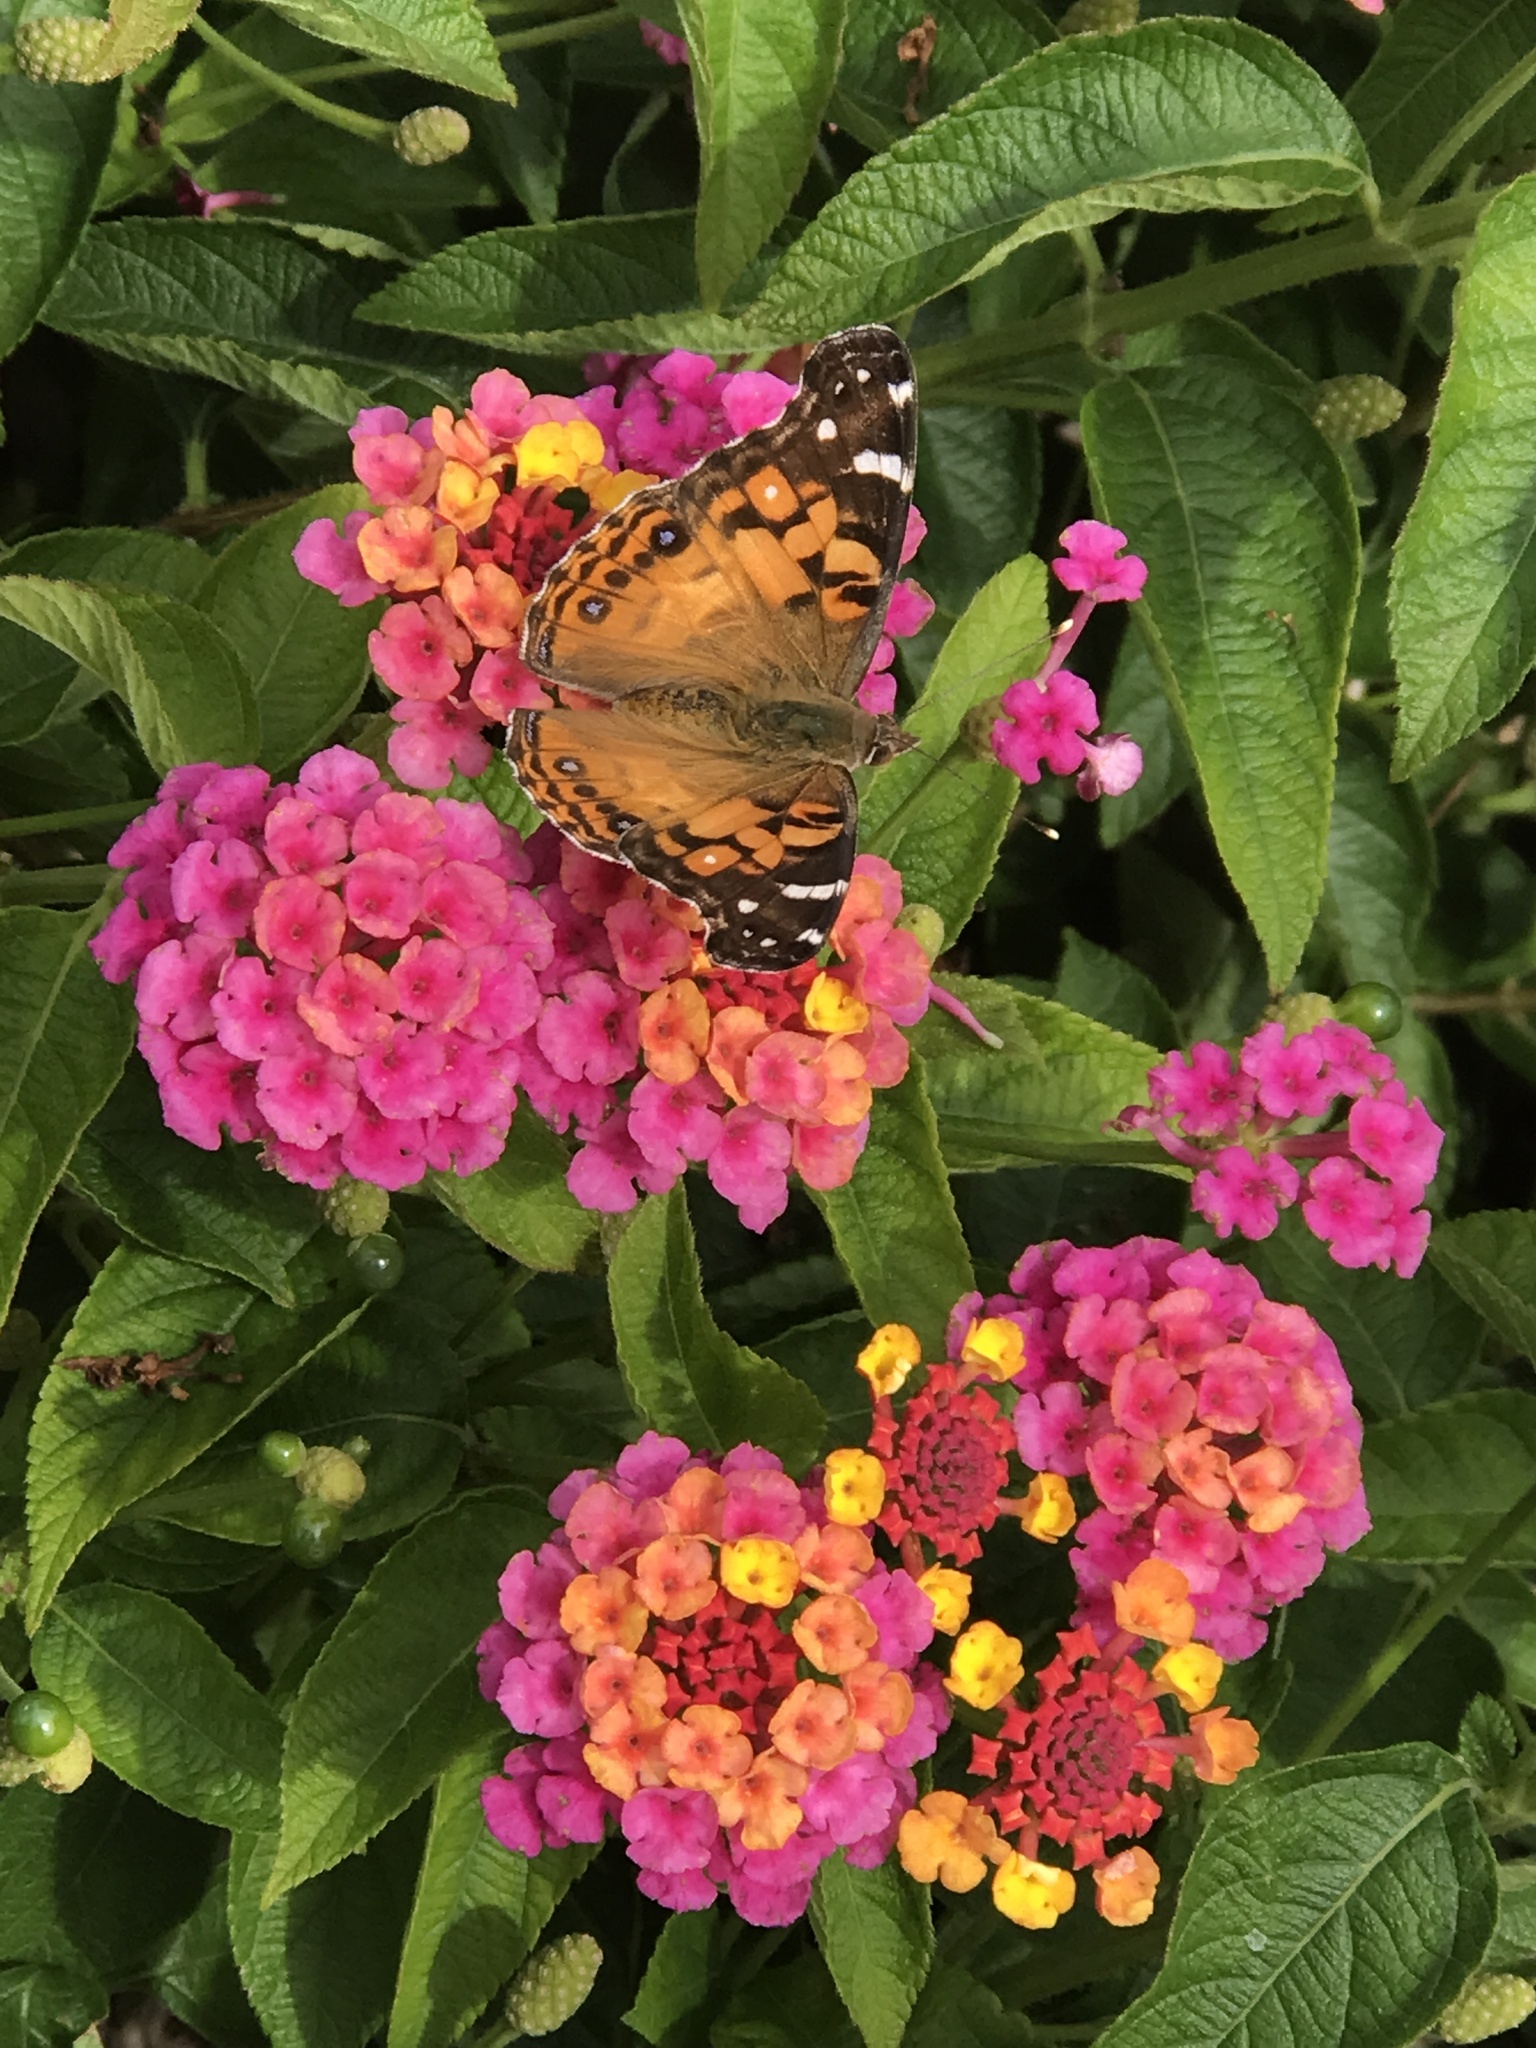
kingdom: Animalia
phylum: Arthropoda
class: Insecta
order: Lepidoptera
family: Nymphalidae
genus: Vanessa
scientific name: Vanessa virginiensis
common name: American lady
